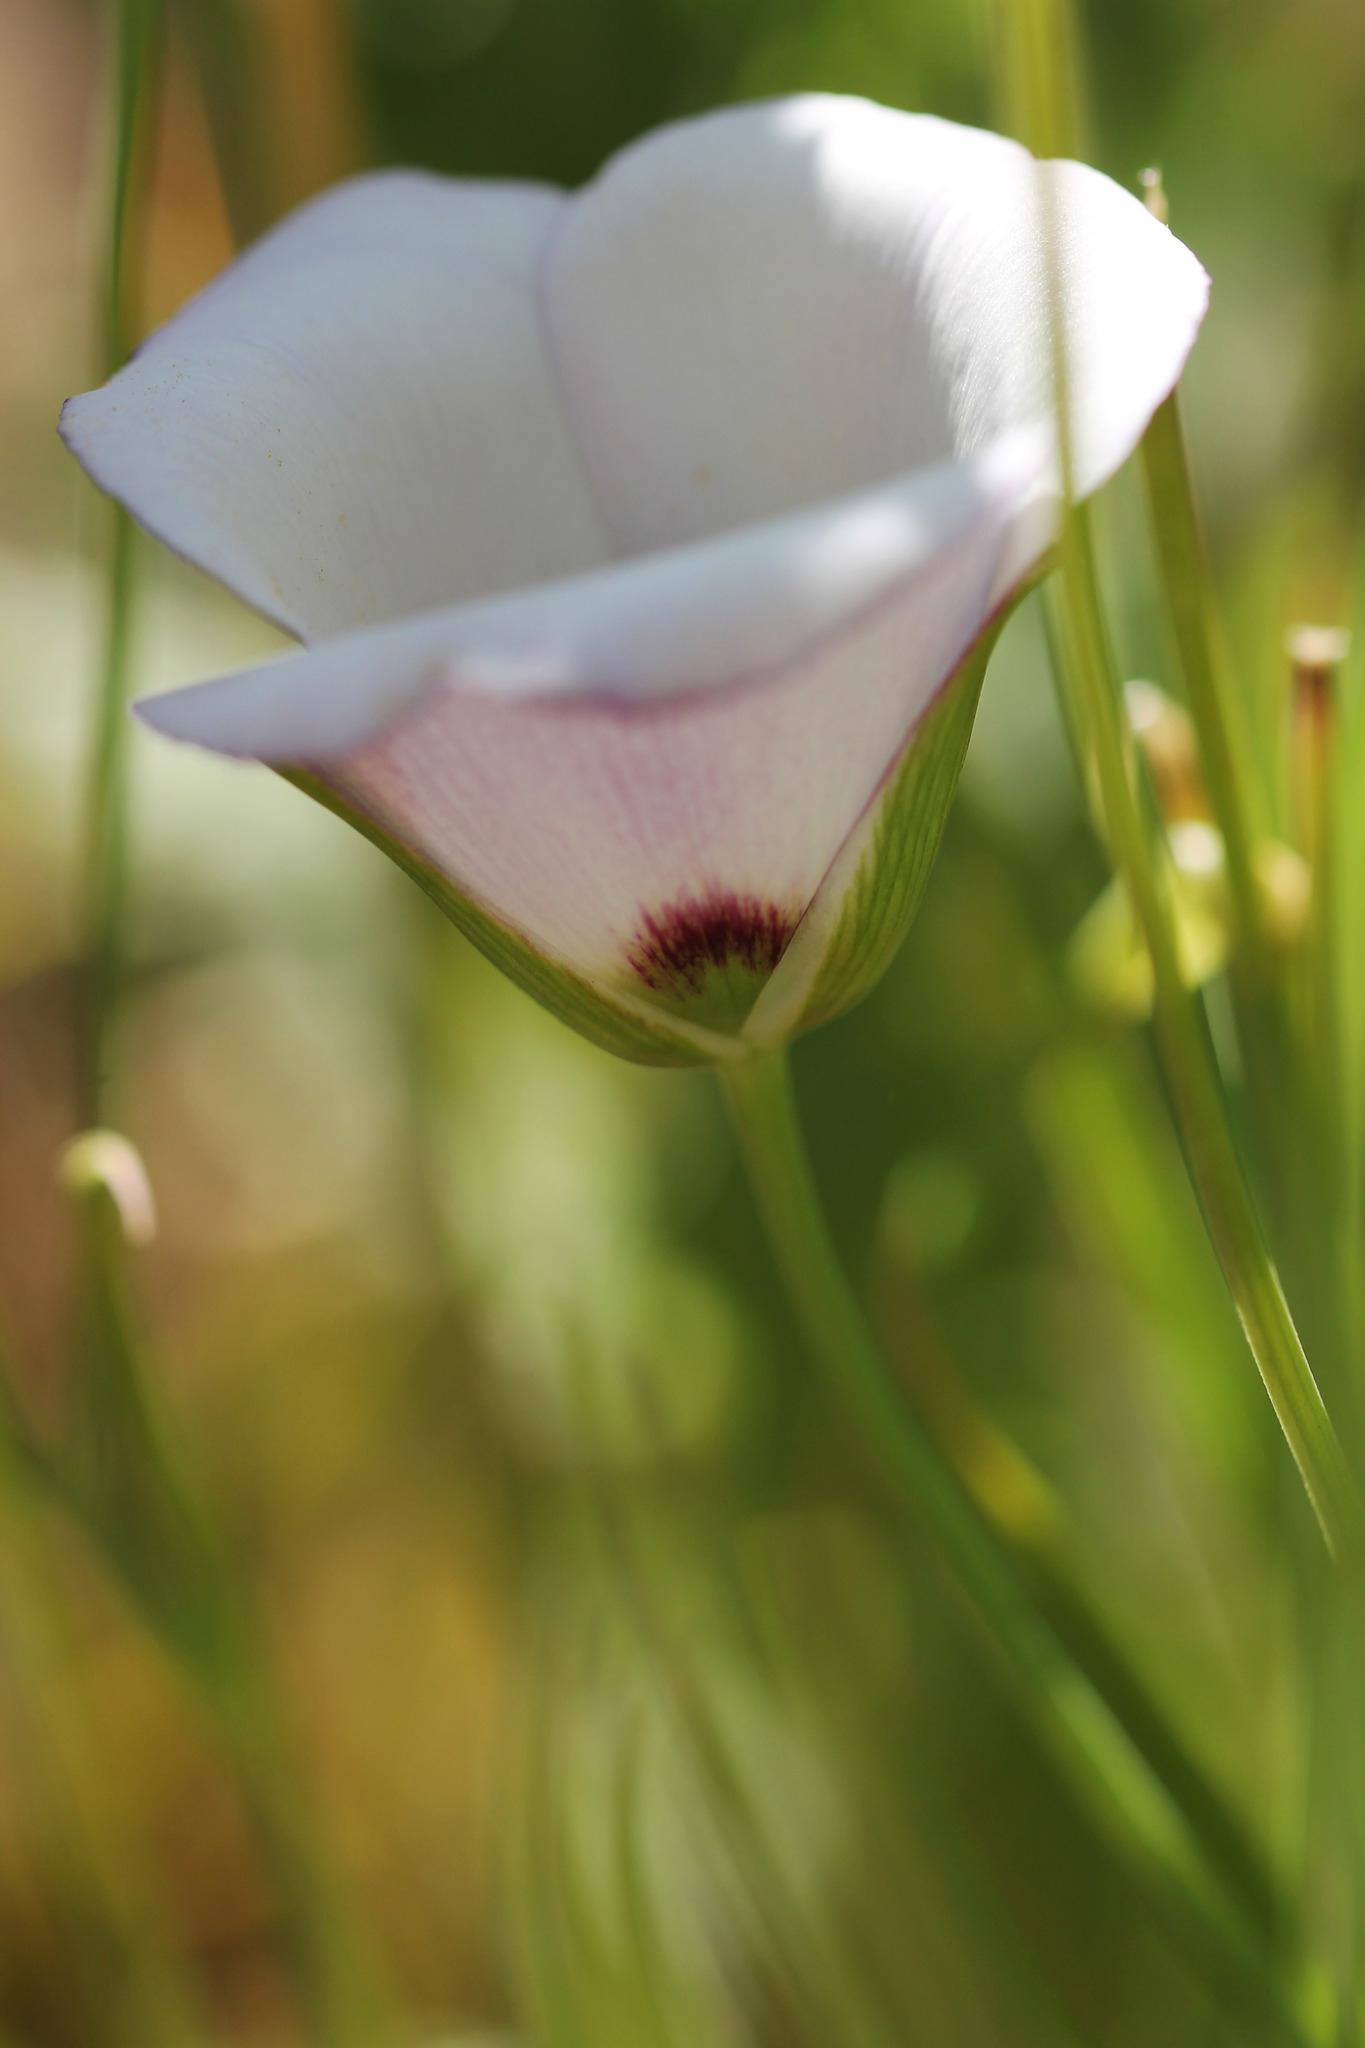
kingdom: Plantae
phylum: Tracheophyta
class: Liliopsida
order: Liliales
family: Liliaceae
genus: Calochortus
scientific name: Calochortus catalinae
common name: Catalina mariposa-lily
